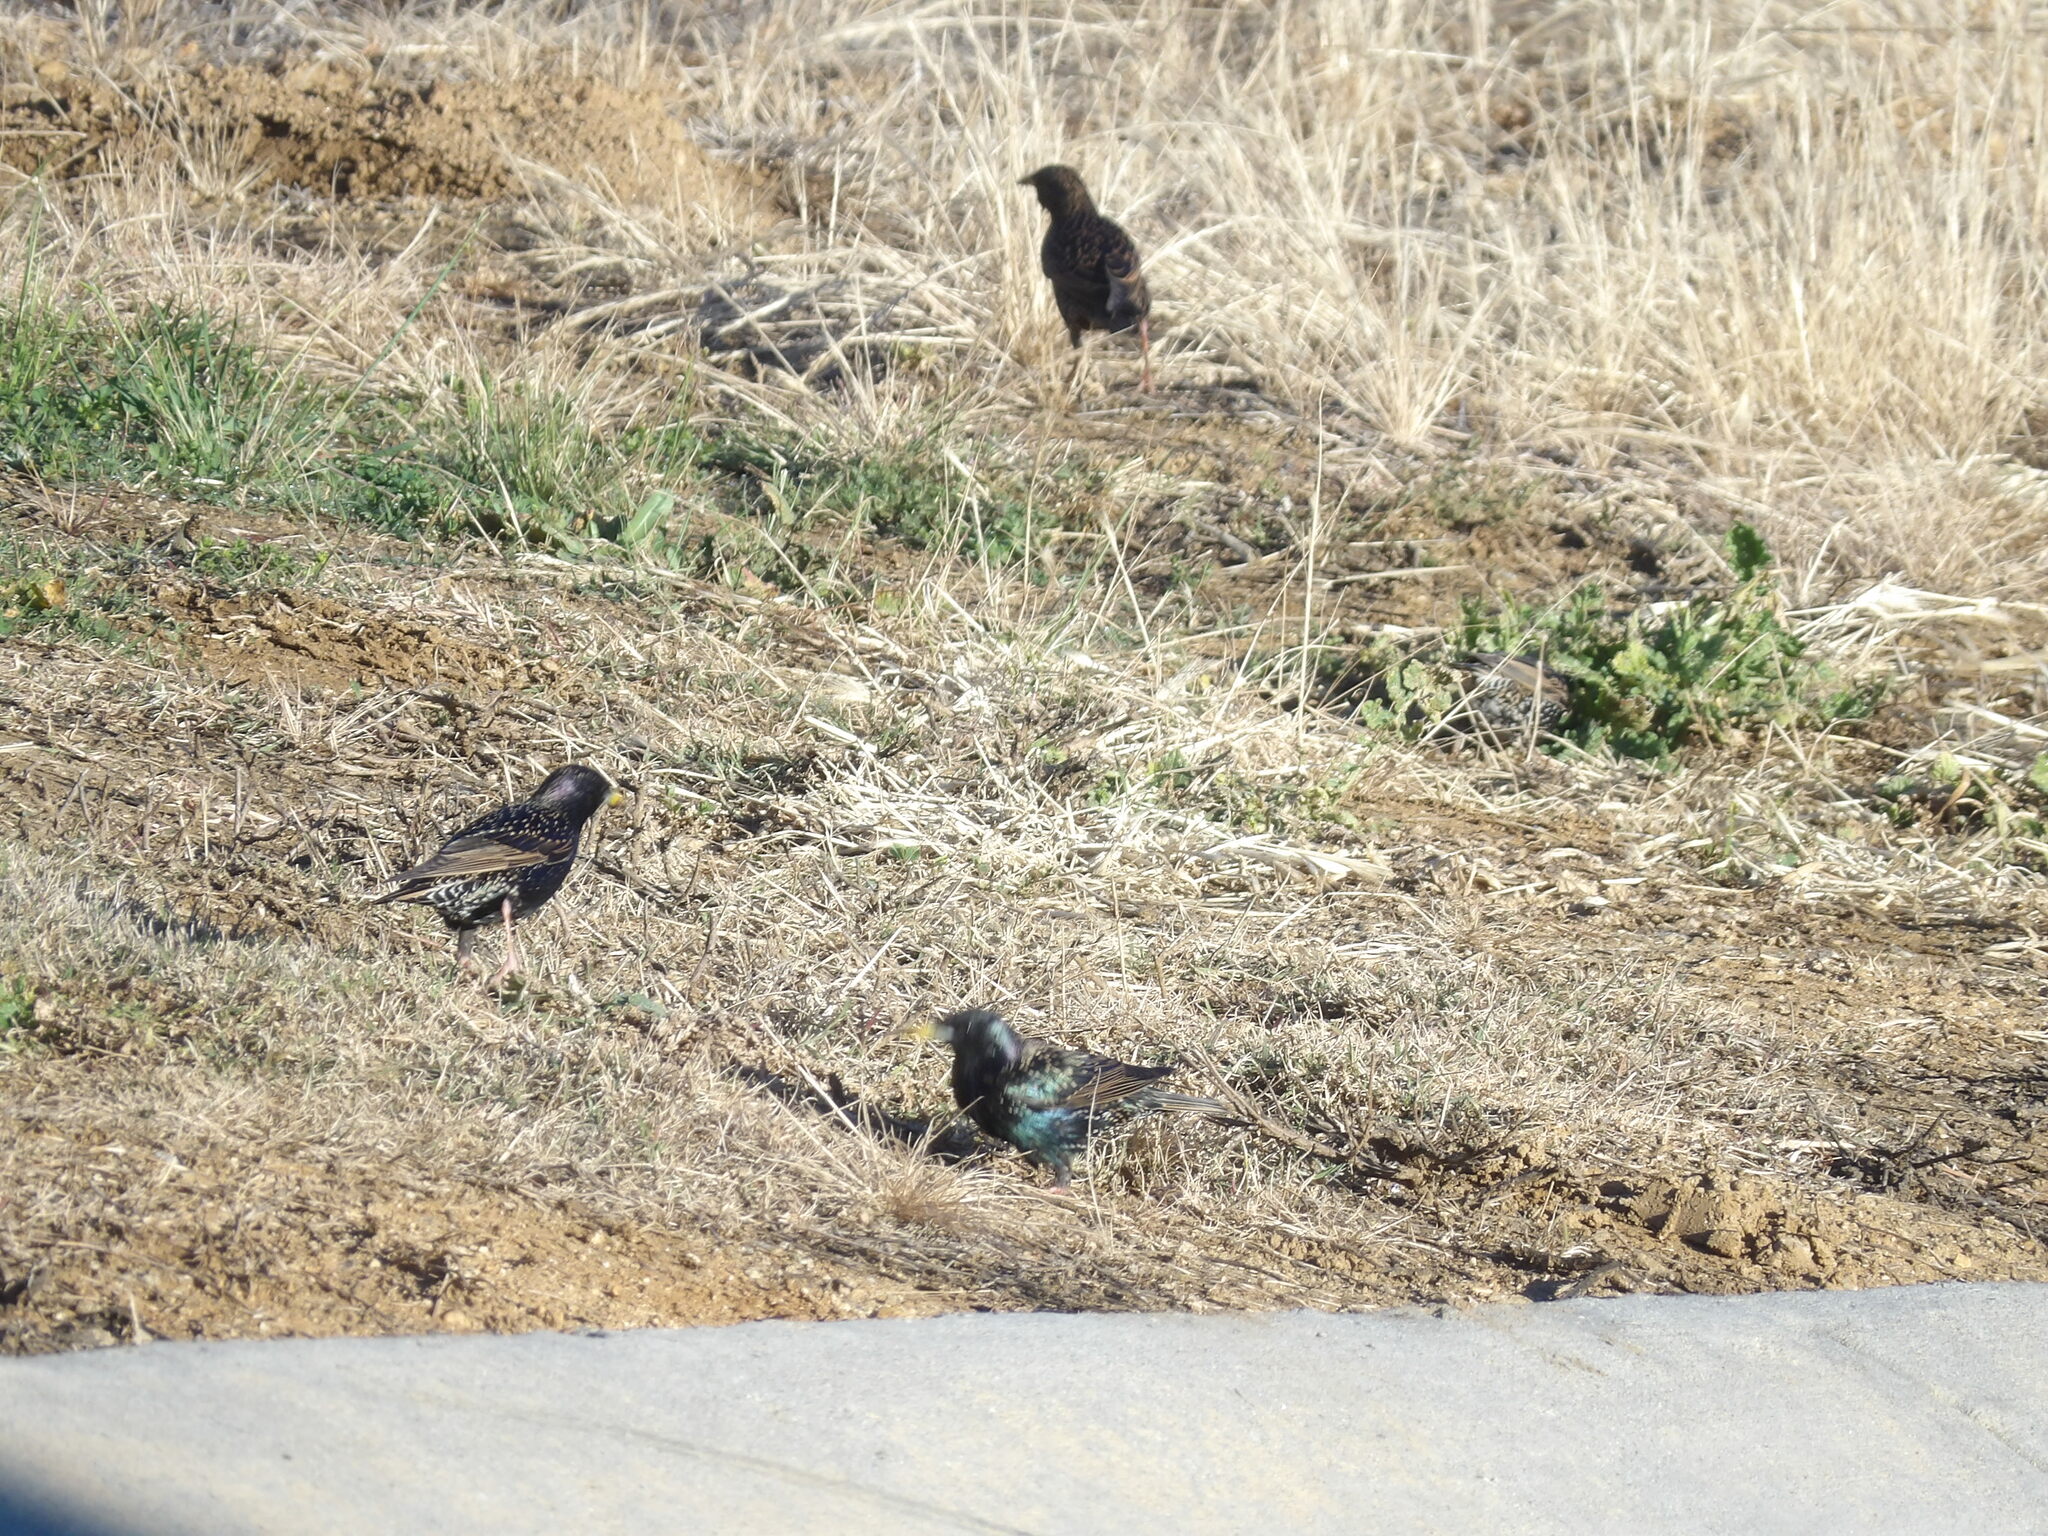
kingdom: Animalia
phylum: Chordata
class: Aves
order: Passeriformes
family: Sturnidae
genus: Sturnus
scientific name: Sturnus vulgaris
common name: Common starling
